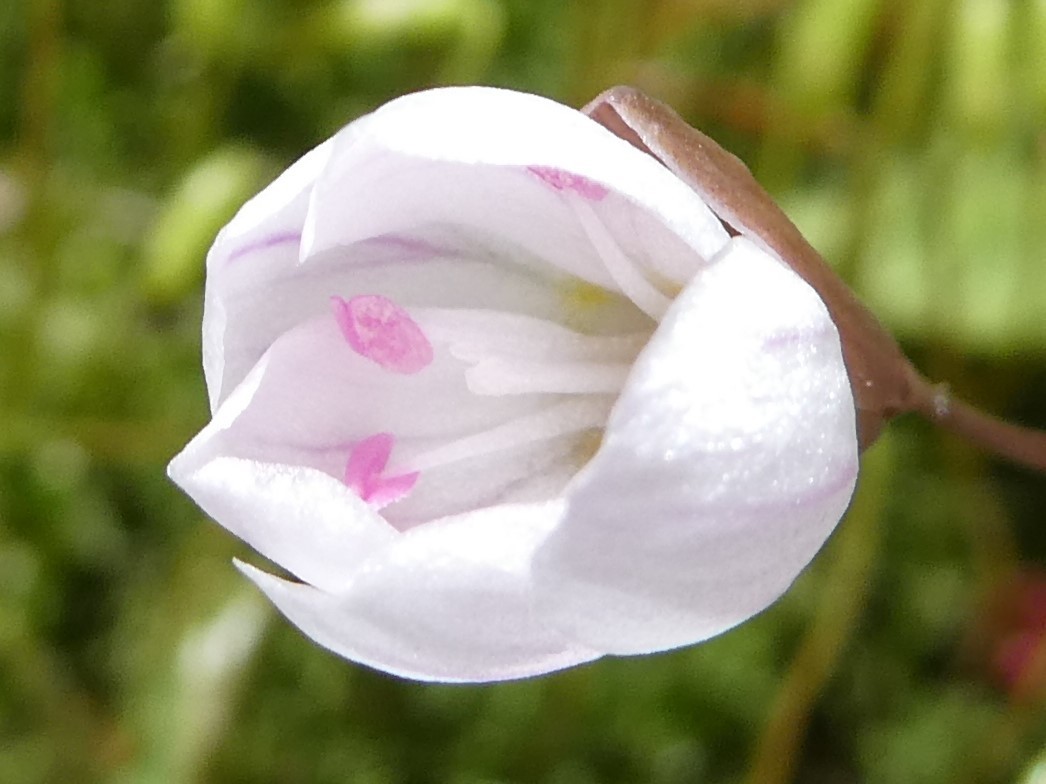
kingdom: Plantae
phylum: Tracheophyta
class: Magnoliopsida
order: Caryophyllales
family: Montiaceae
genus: Claytonia
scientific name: Claytonia caroliniana
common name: Carolina spring beauty
